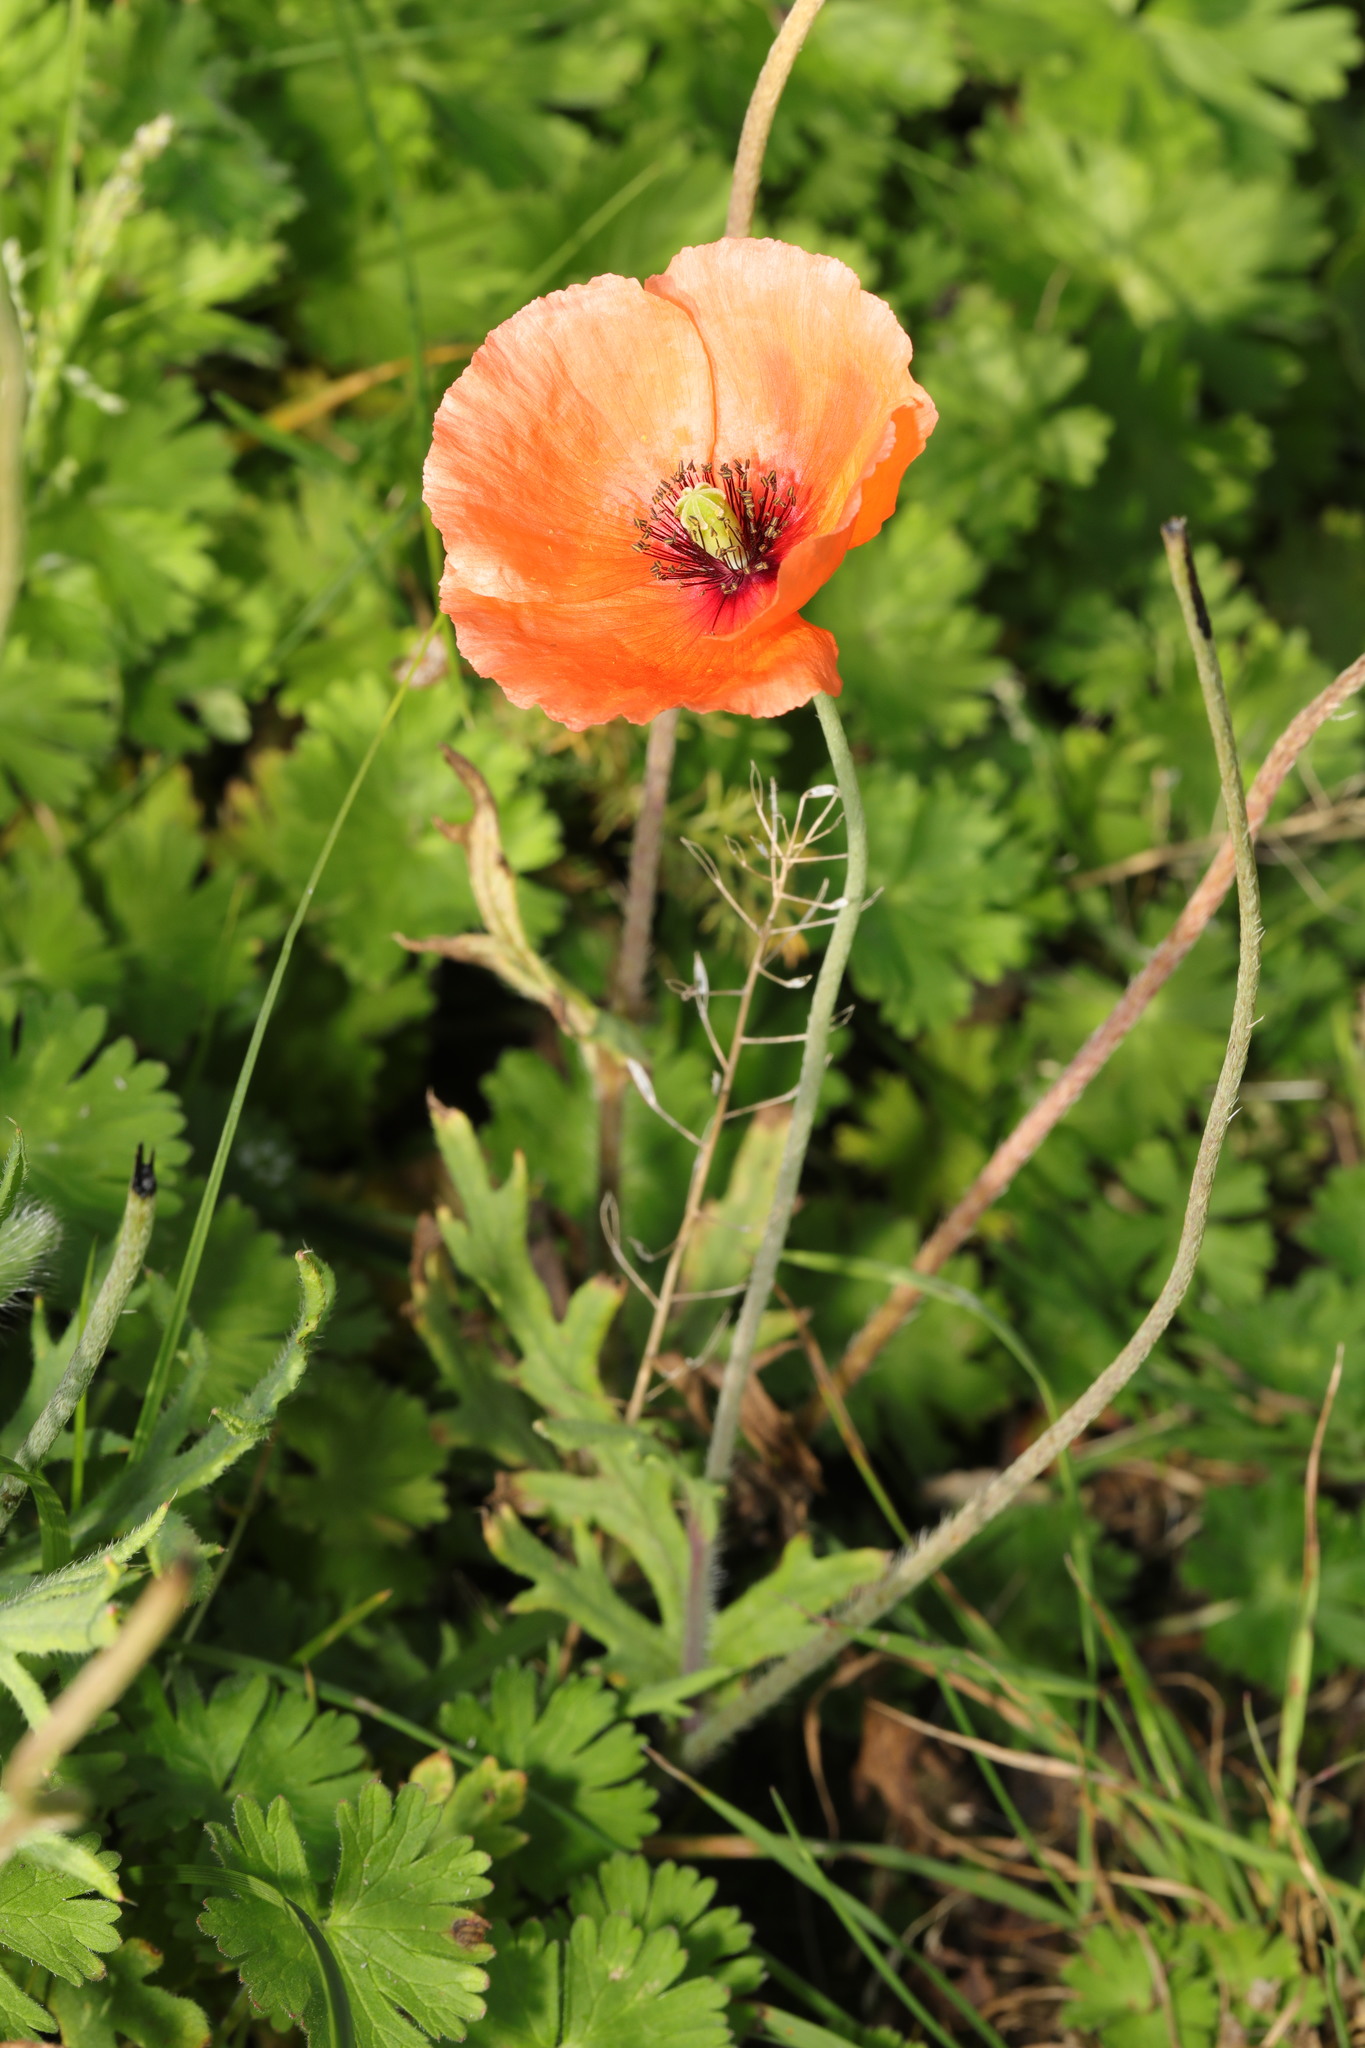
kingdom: Plantae
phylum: Tracheophyta
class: Magnoliopsida
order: Ranunculales
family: Papaveraceae
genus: Papaver
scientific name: Papaver rhoeas
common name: Corn poppy
